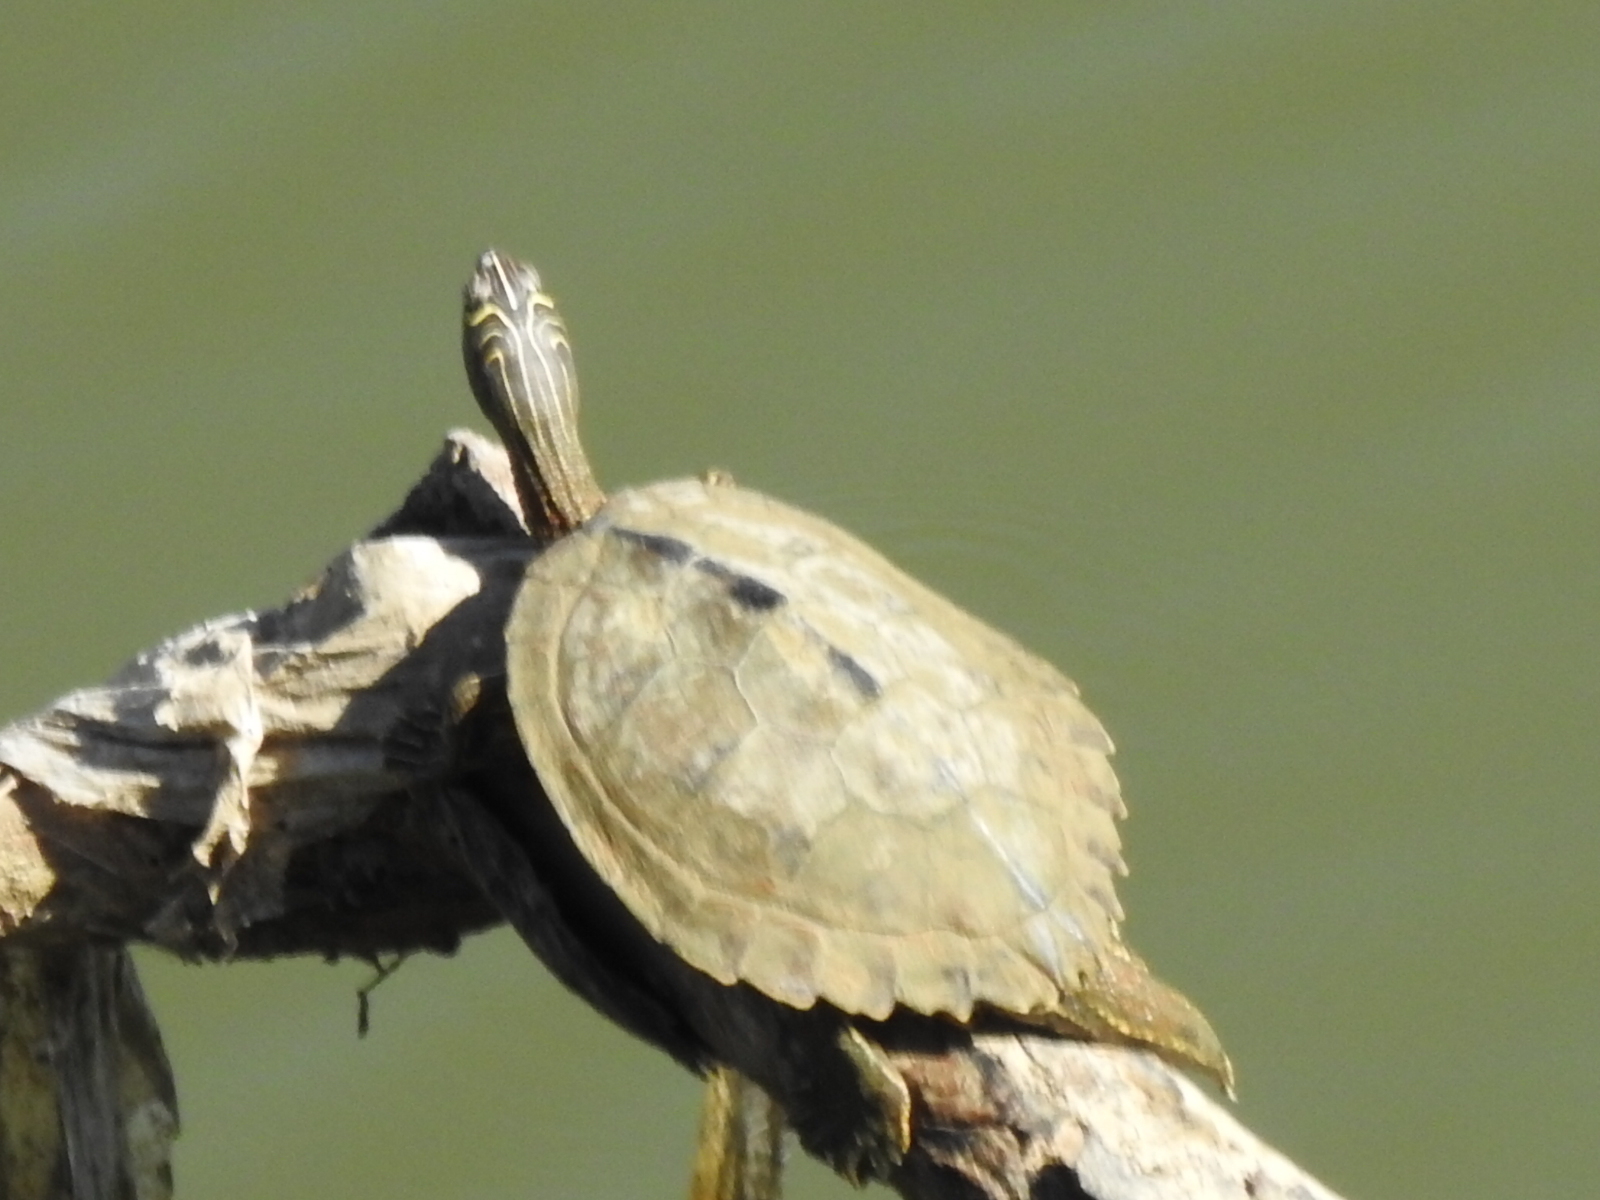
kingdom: Animalia
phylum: Chordata
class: Testudines
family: Emydidae
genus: Graptemys
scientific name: Graptemys pseudogeographica
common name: False map turtle
